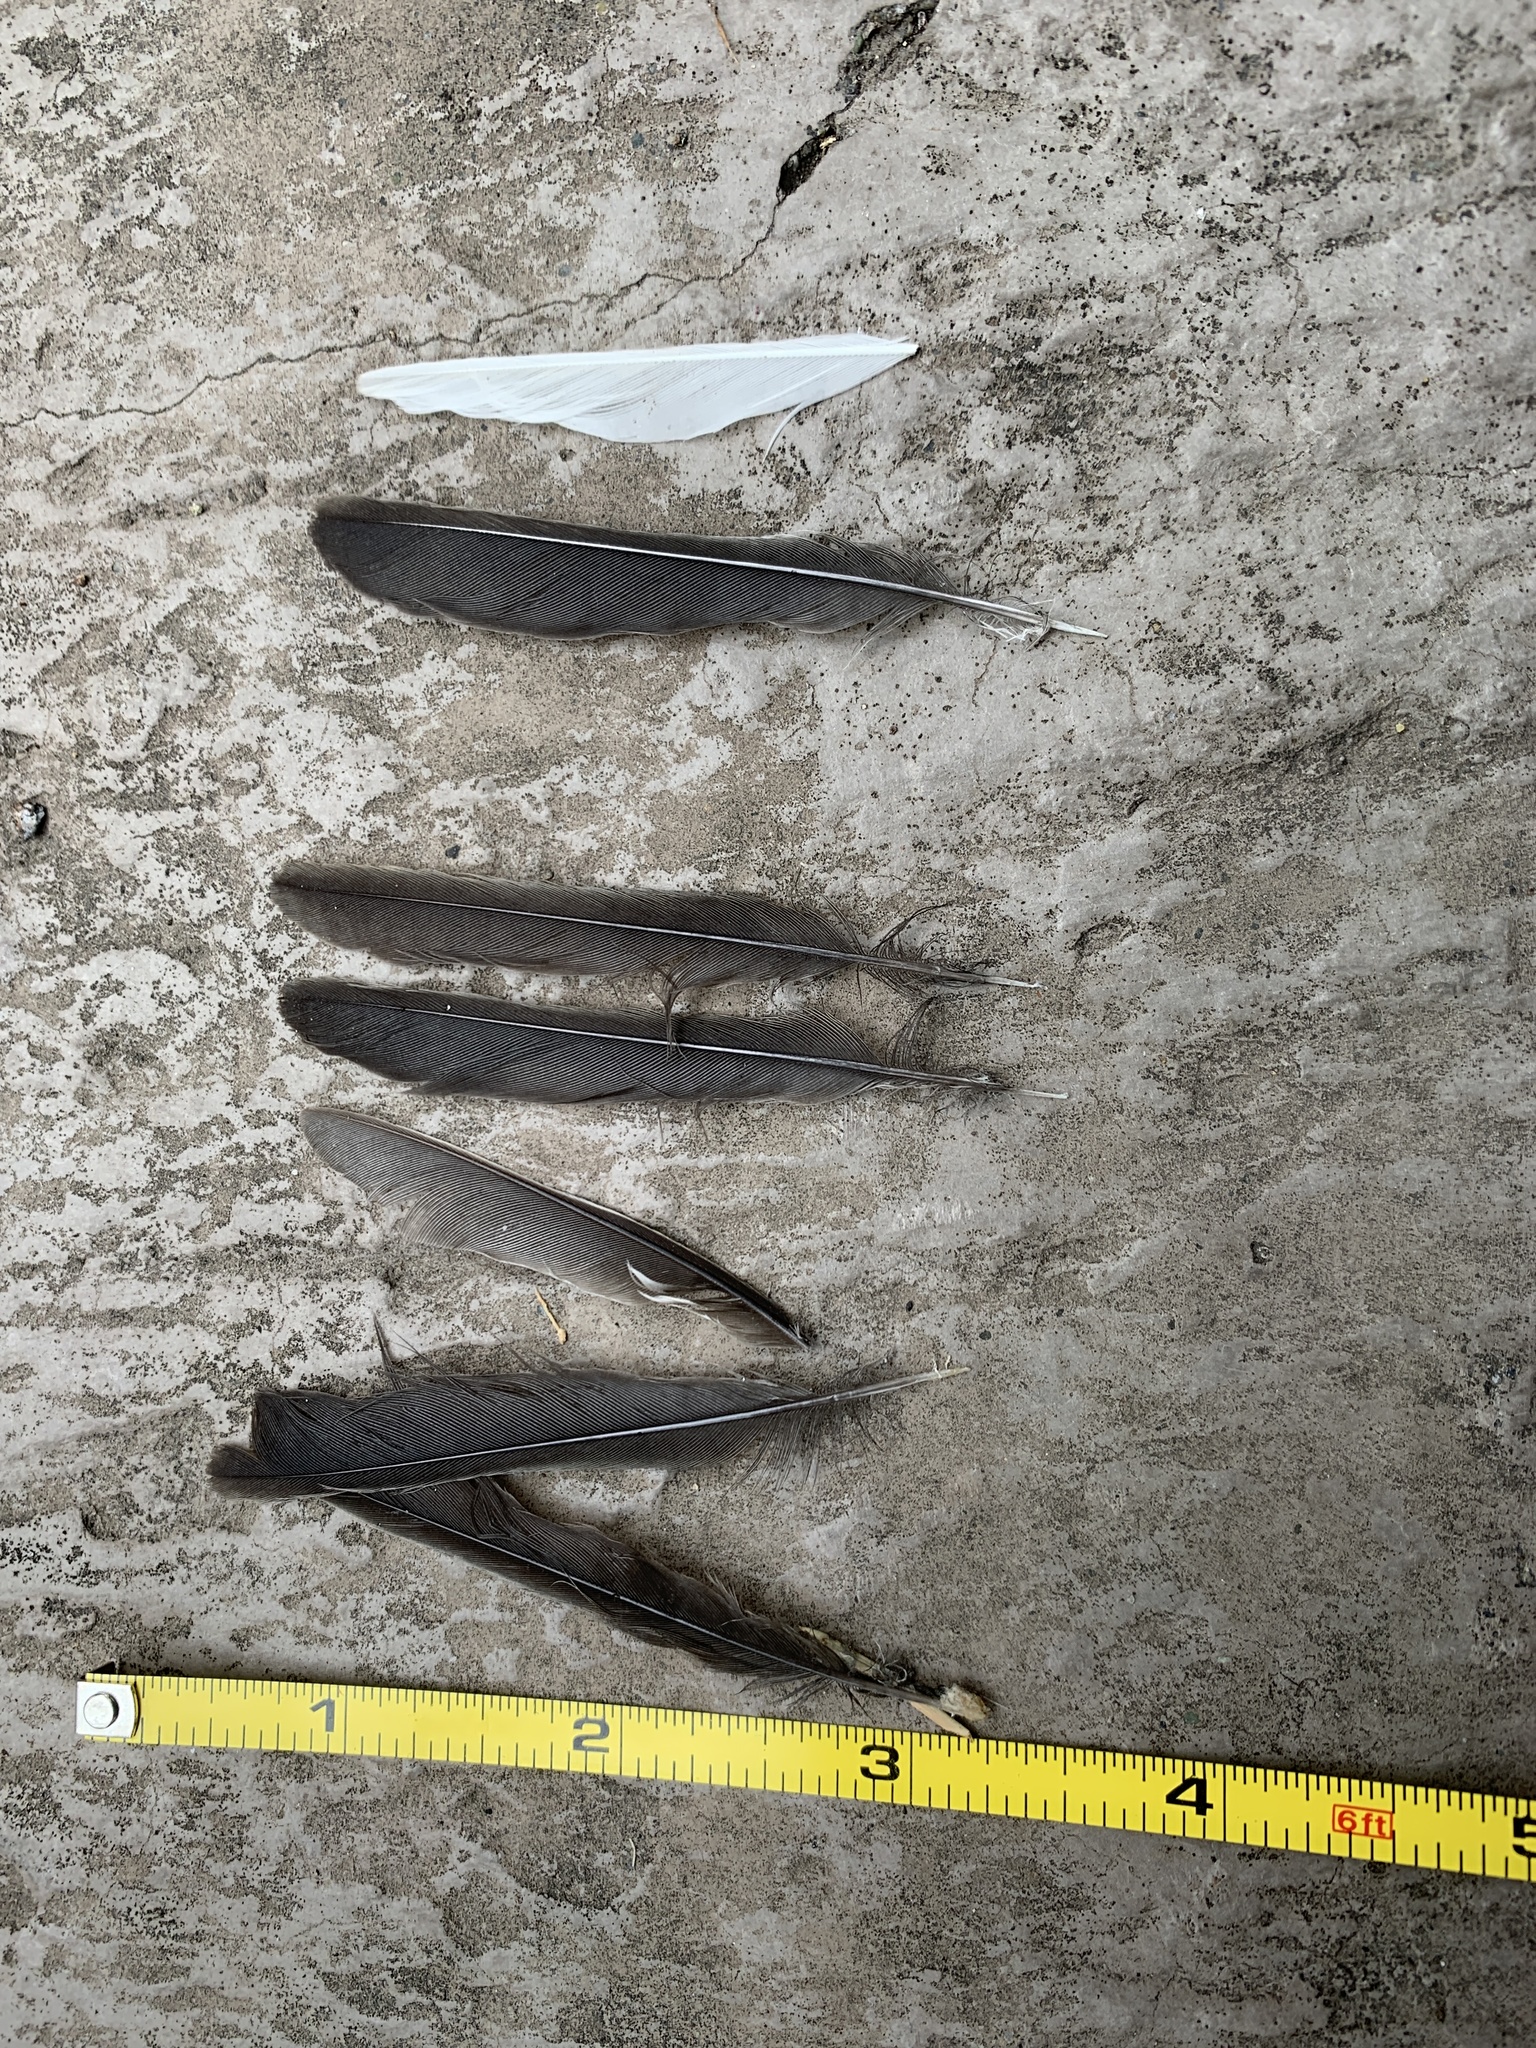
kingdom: Animalia
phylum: Chordata
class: Aves
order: Passeriformes
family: Passerellidae
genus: Junco
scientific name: Junco hyemalis
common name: Dark-eyed junco
